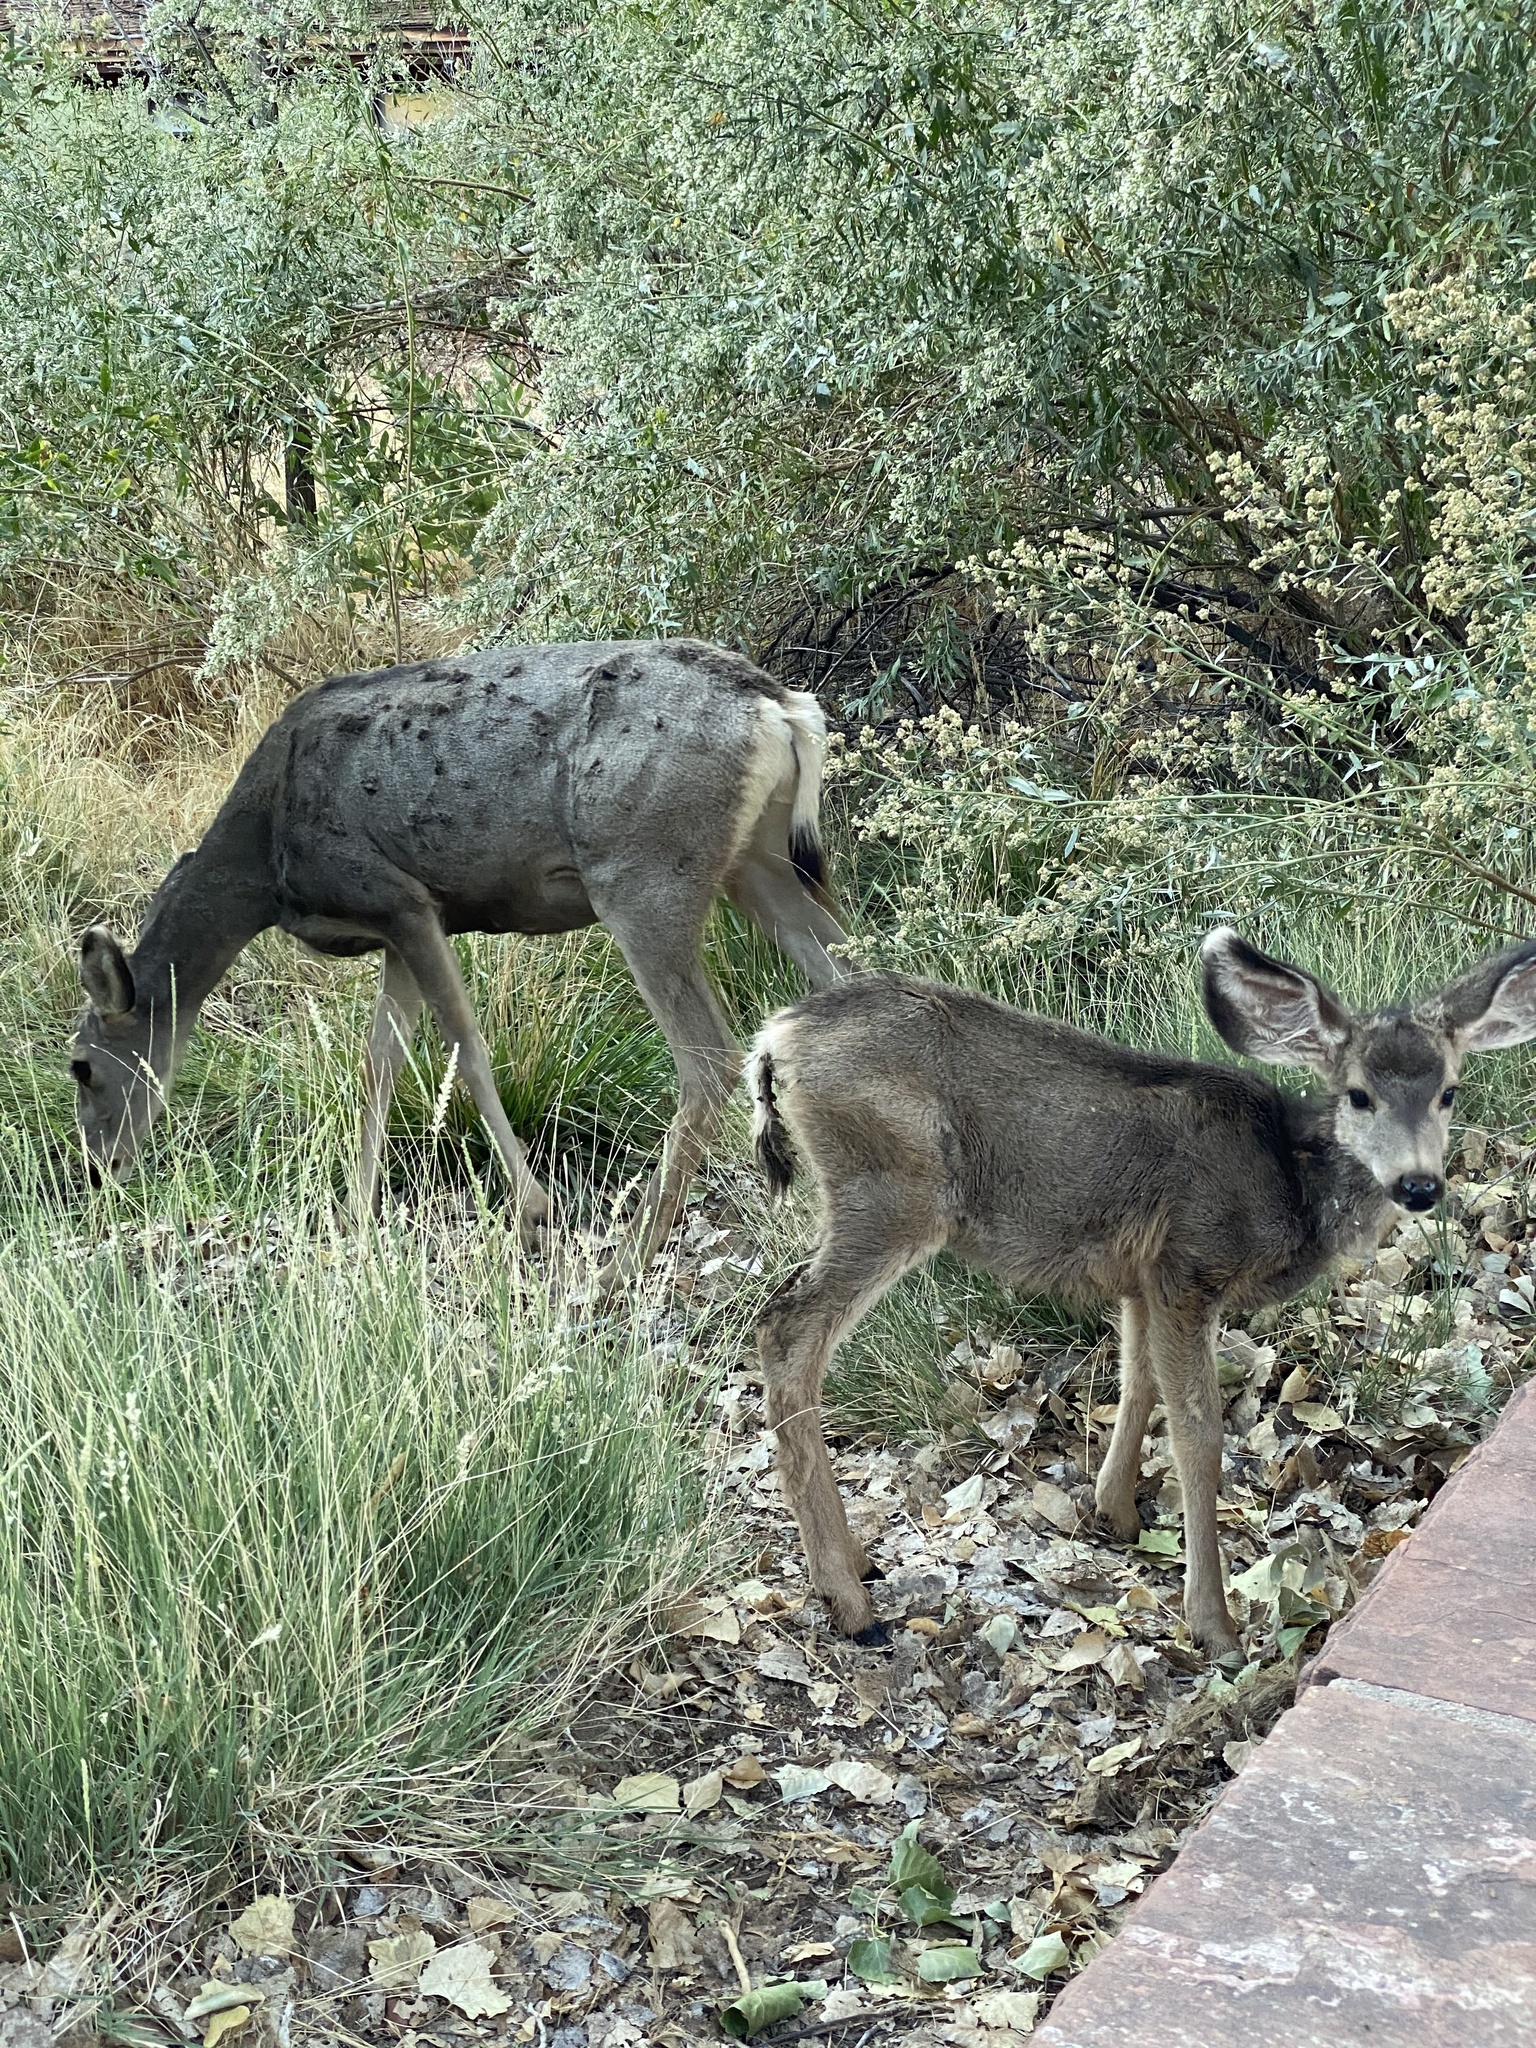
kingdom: Animalia
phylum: Chordata
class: Mammalia
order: Artiodactyla
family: Cervidae
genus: Odocoileus
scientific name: Odocoileus hemionus
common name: Mule deer
